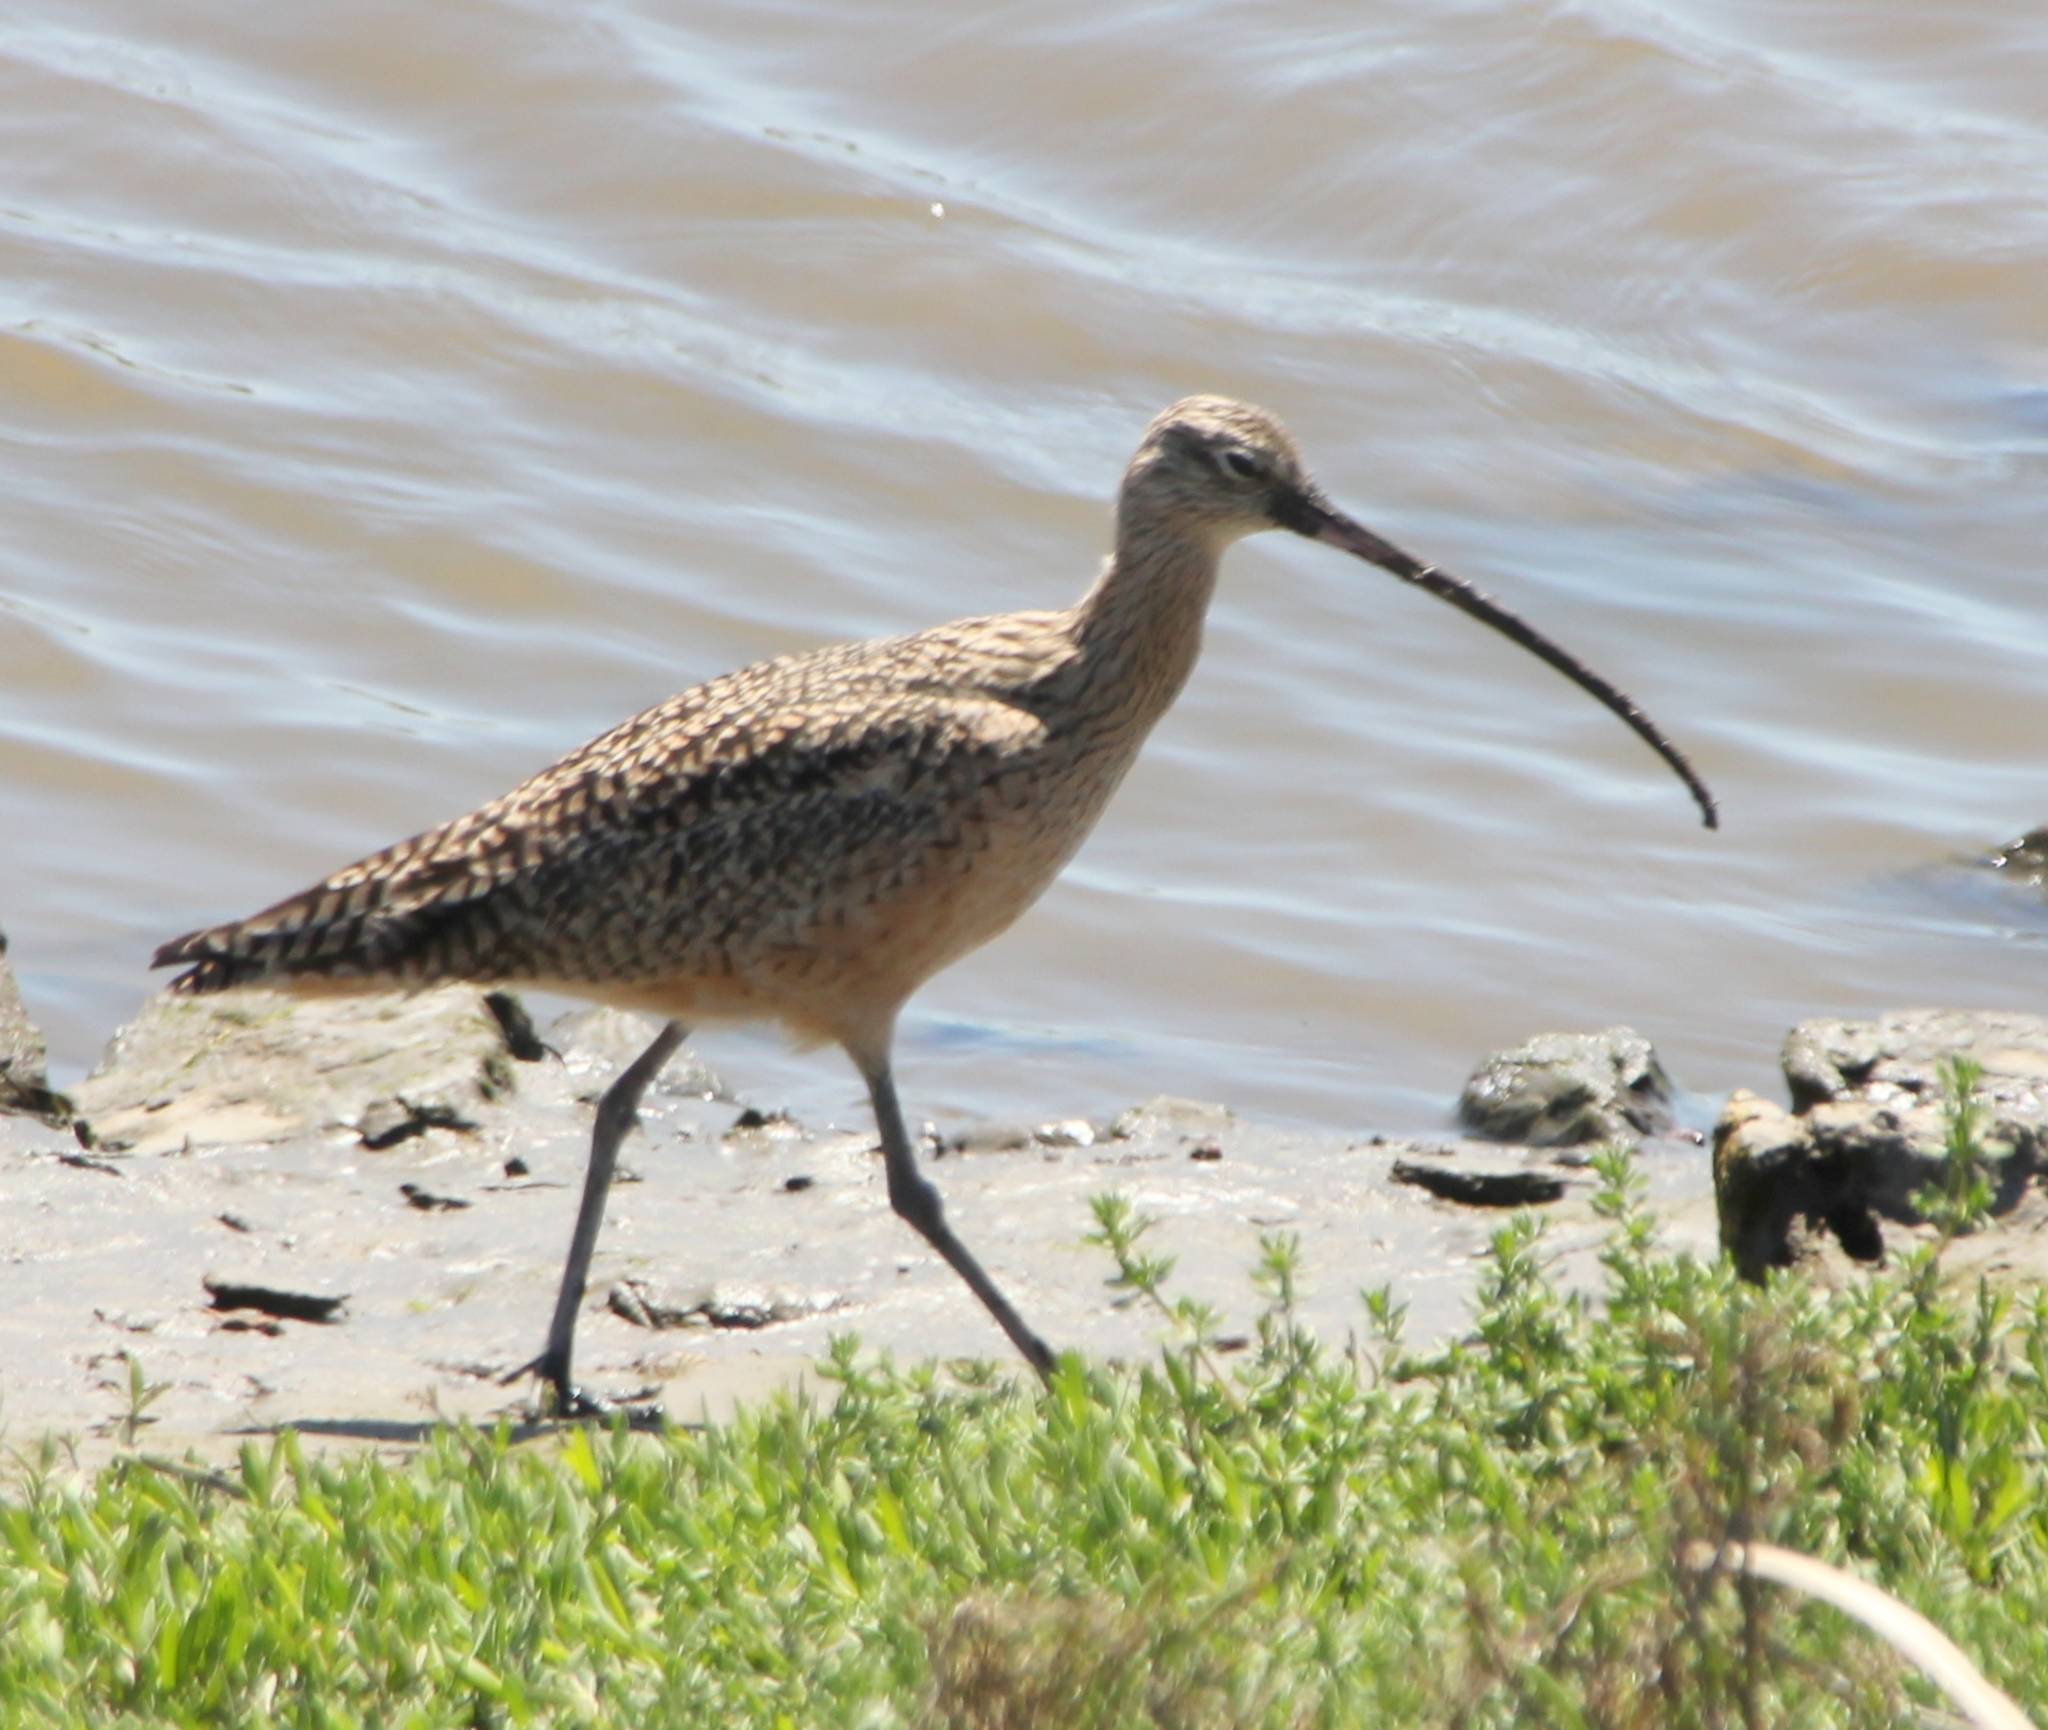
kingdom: Animalia
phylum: Chordata
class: Aves
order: Charadriiformes
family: Scolopacidae
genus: Numenius
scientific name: Numenius americanus
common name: Long-billed curlew
